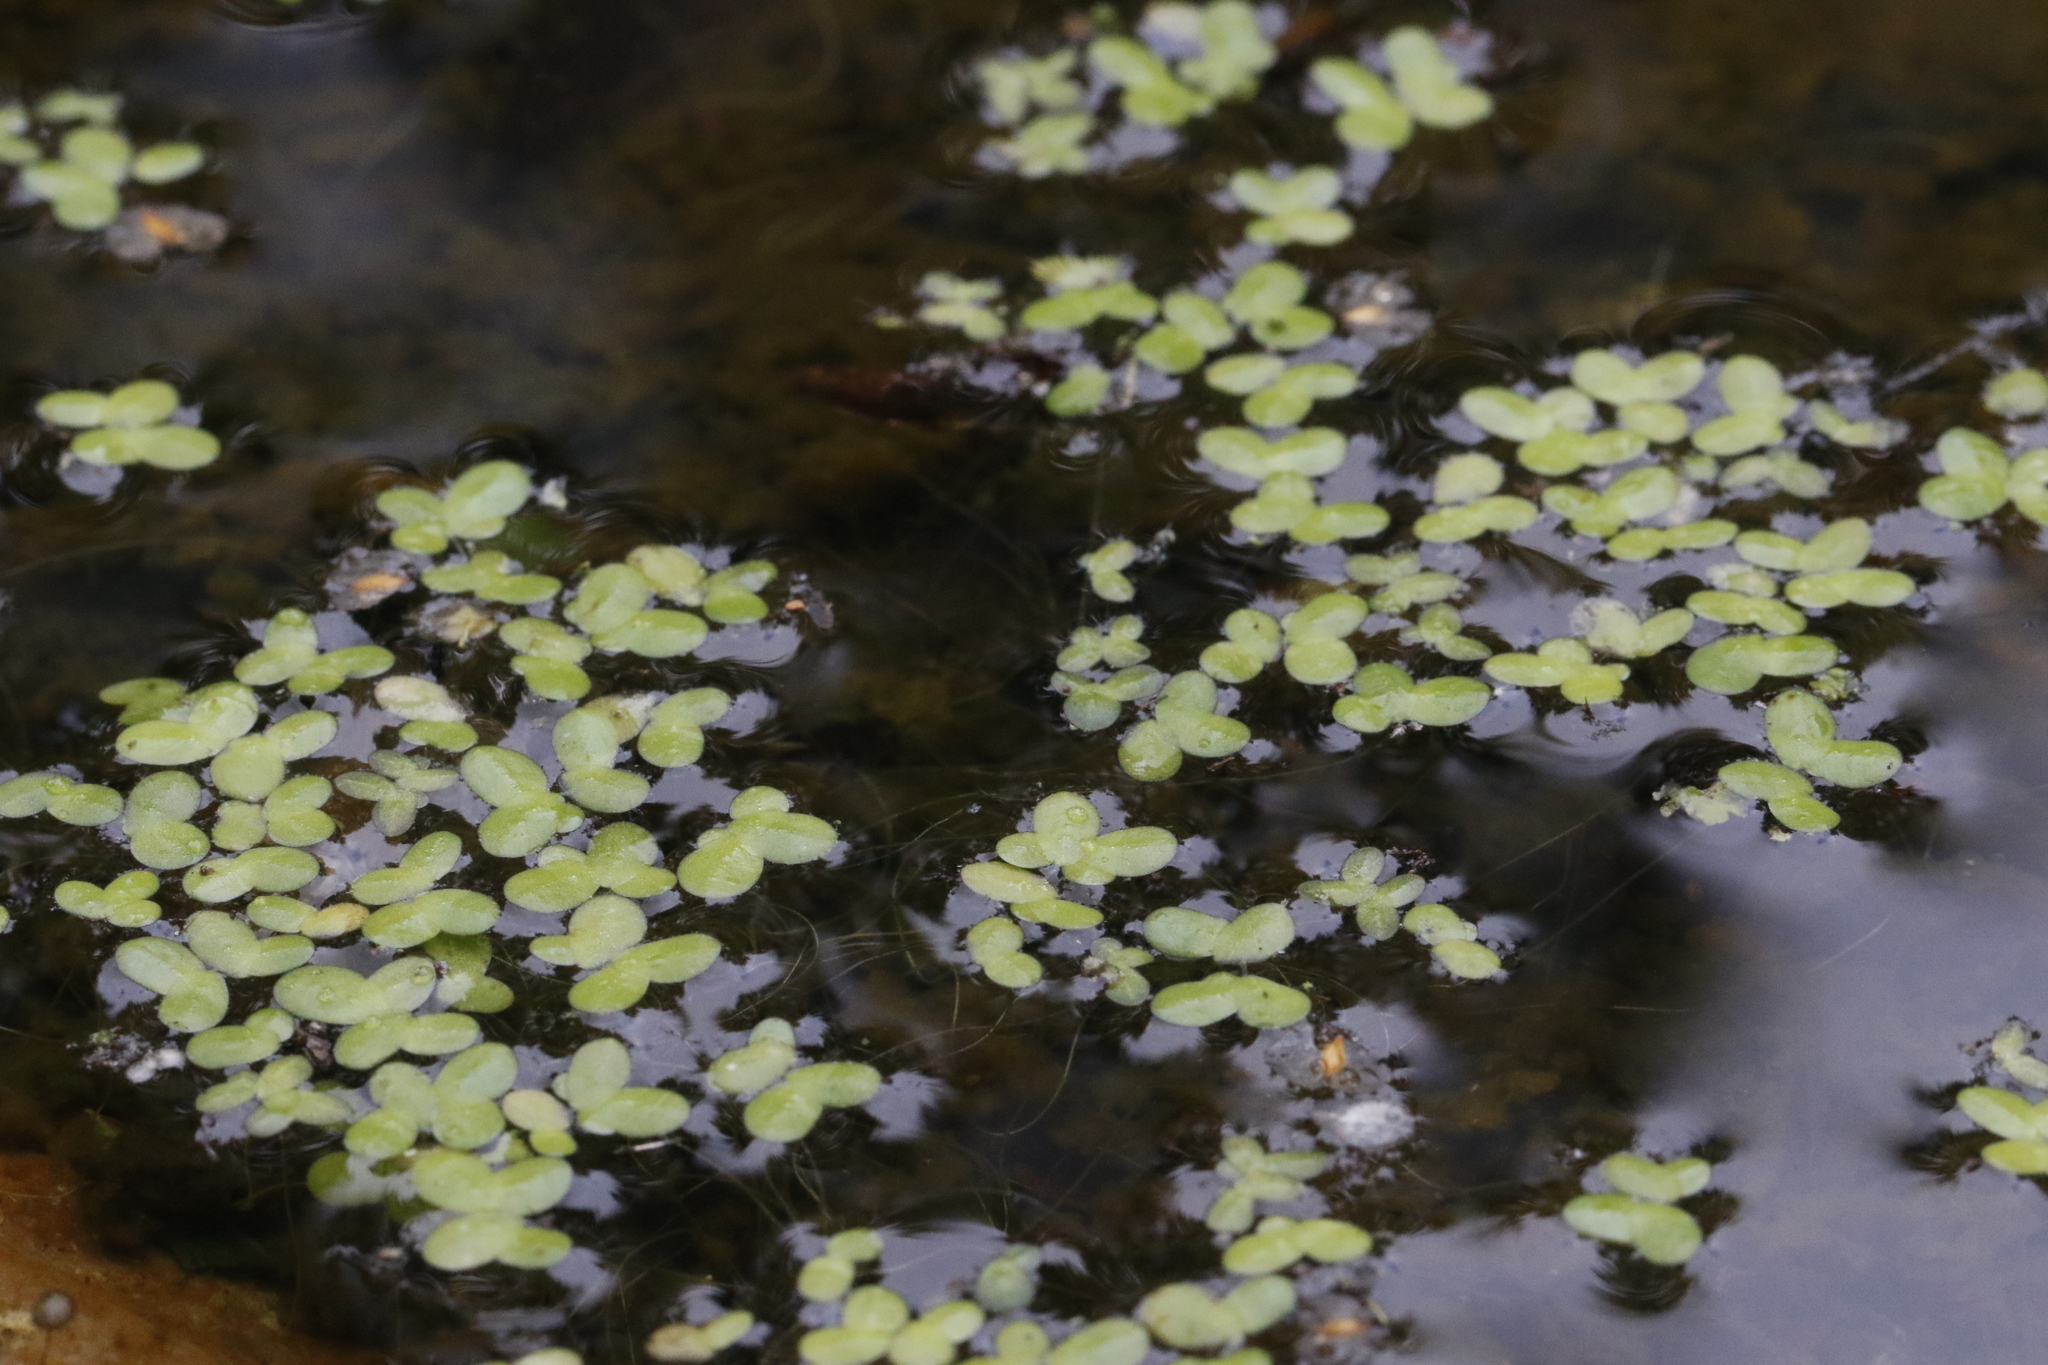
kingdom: Plantae
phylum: Tracheophyta
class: Liliopsida
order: Alismatales
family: Araceae
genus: Lemna
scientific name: Lemna minor
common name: Common duckweed
